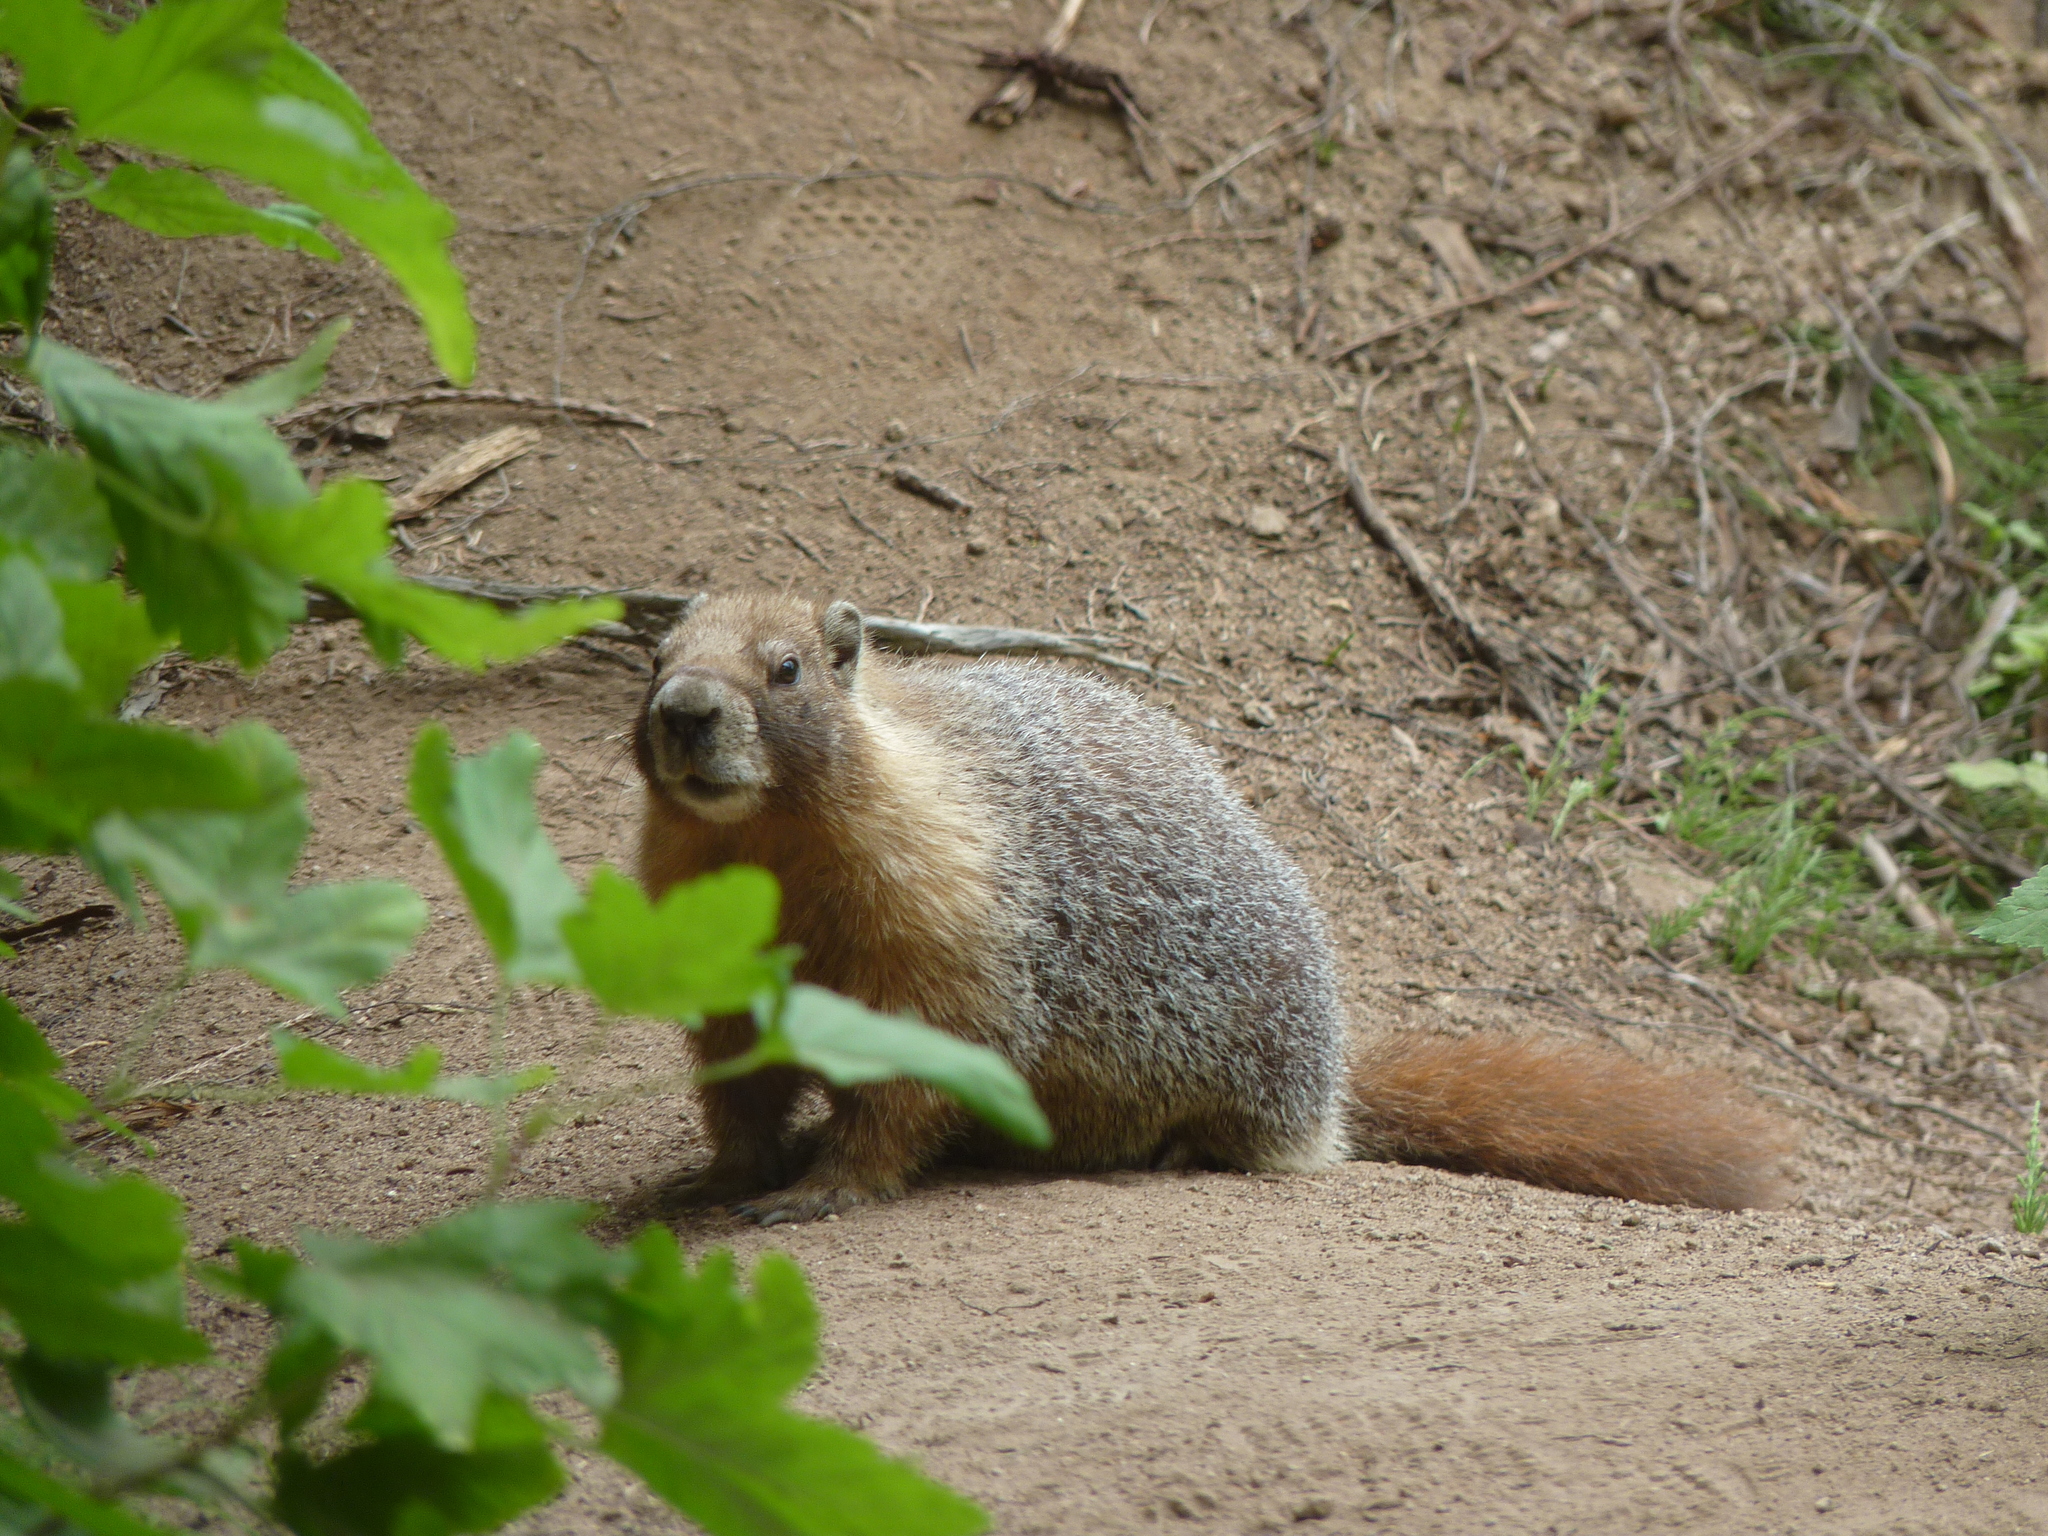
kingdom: Animalia
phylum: Chordata
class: Mammalia
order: Rodentia
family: Sciuridae
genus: Marmota
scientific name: Marmota flaviventris
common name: Yellow-bellied marmot
